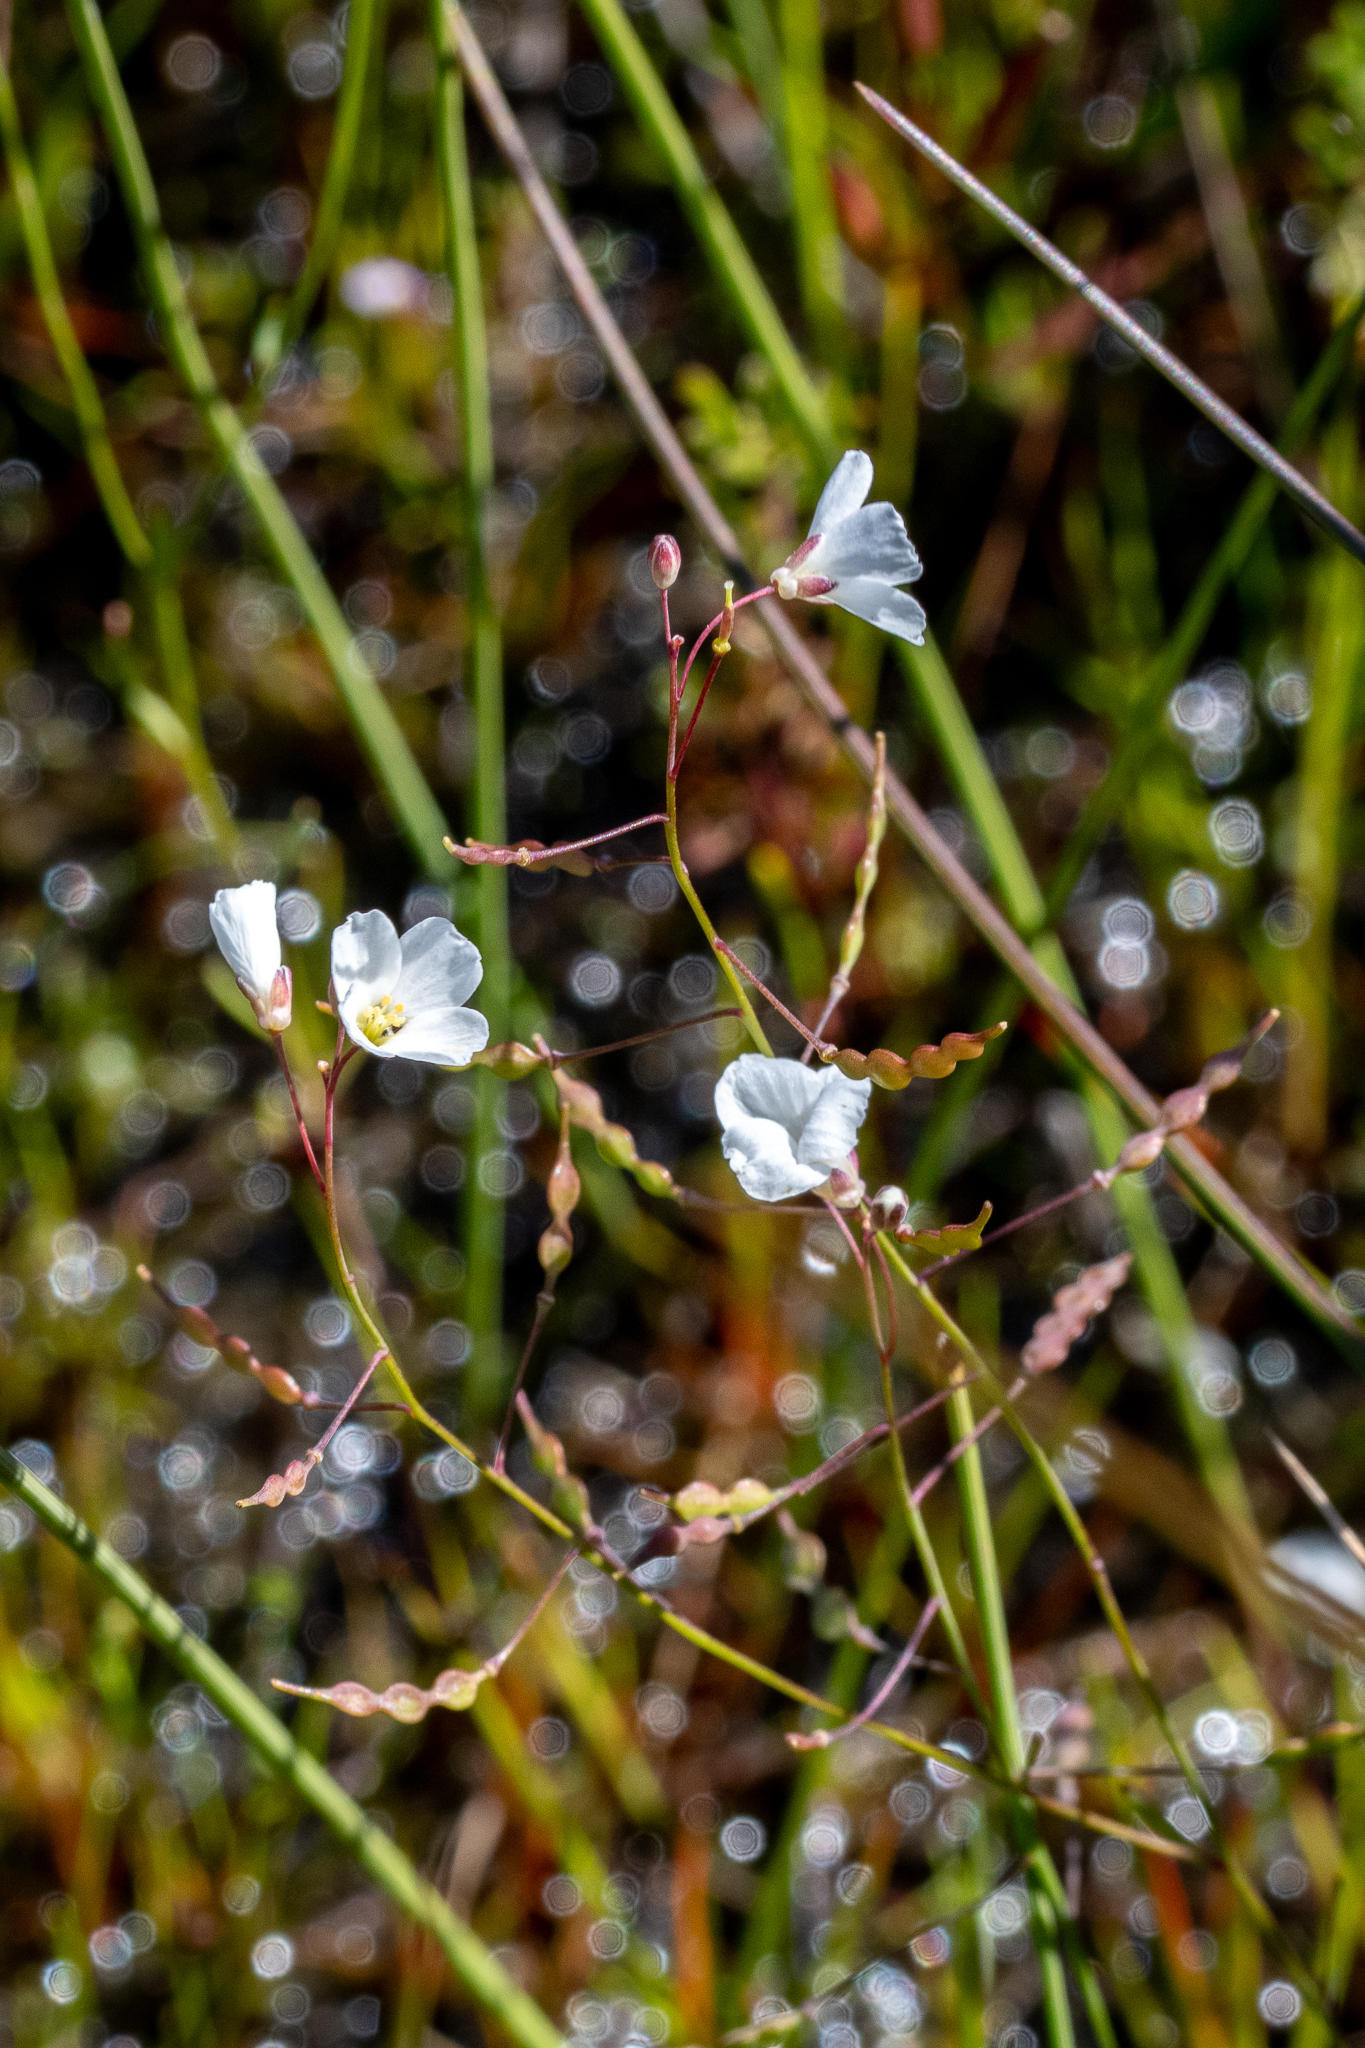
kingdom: Plantae
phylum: Tracheophyta
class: Magnoliopsida
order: Brassicales
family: Brassicaceae
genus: Heliophila
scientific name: Heliophila pusilla
